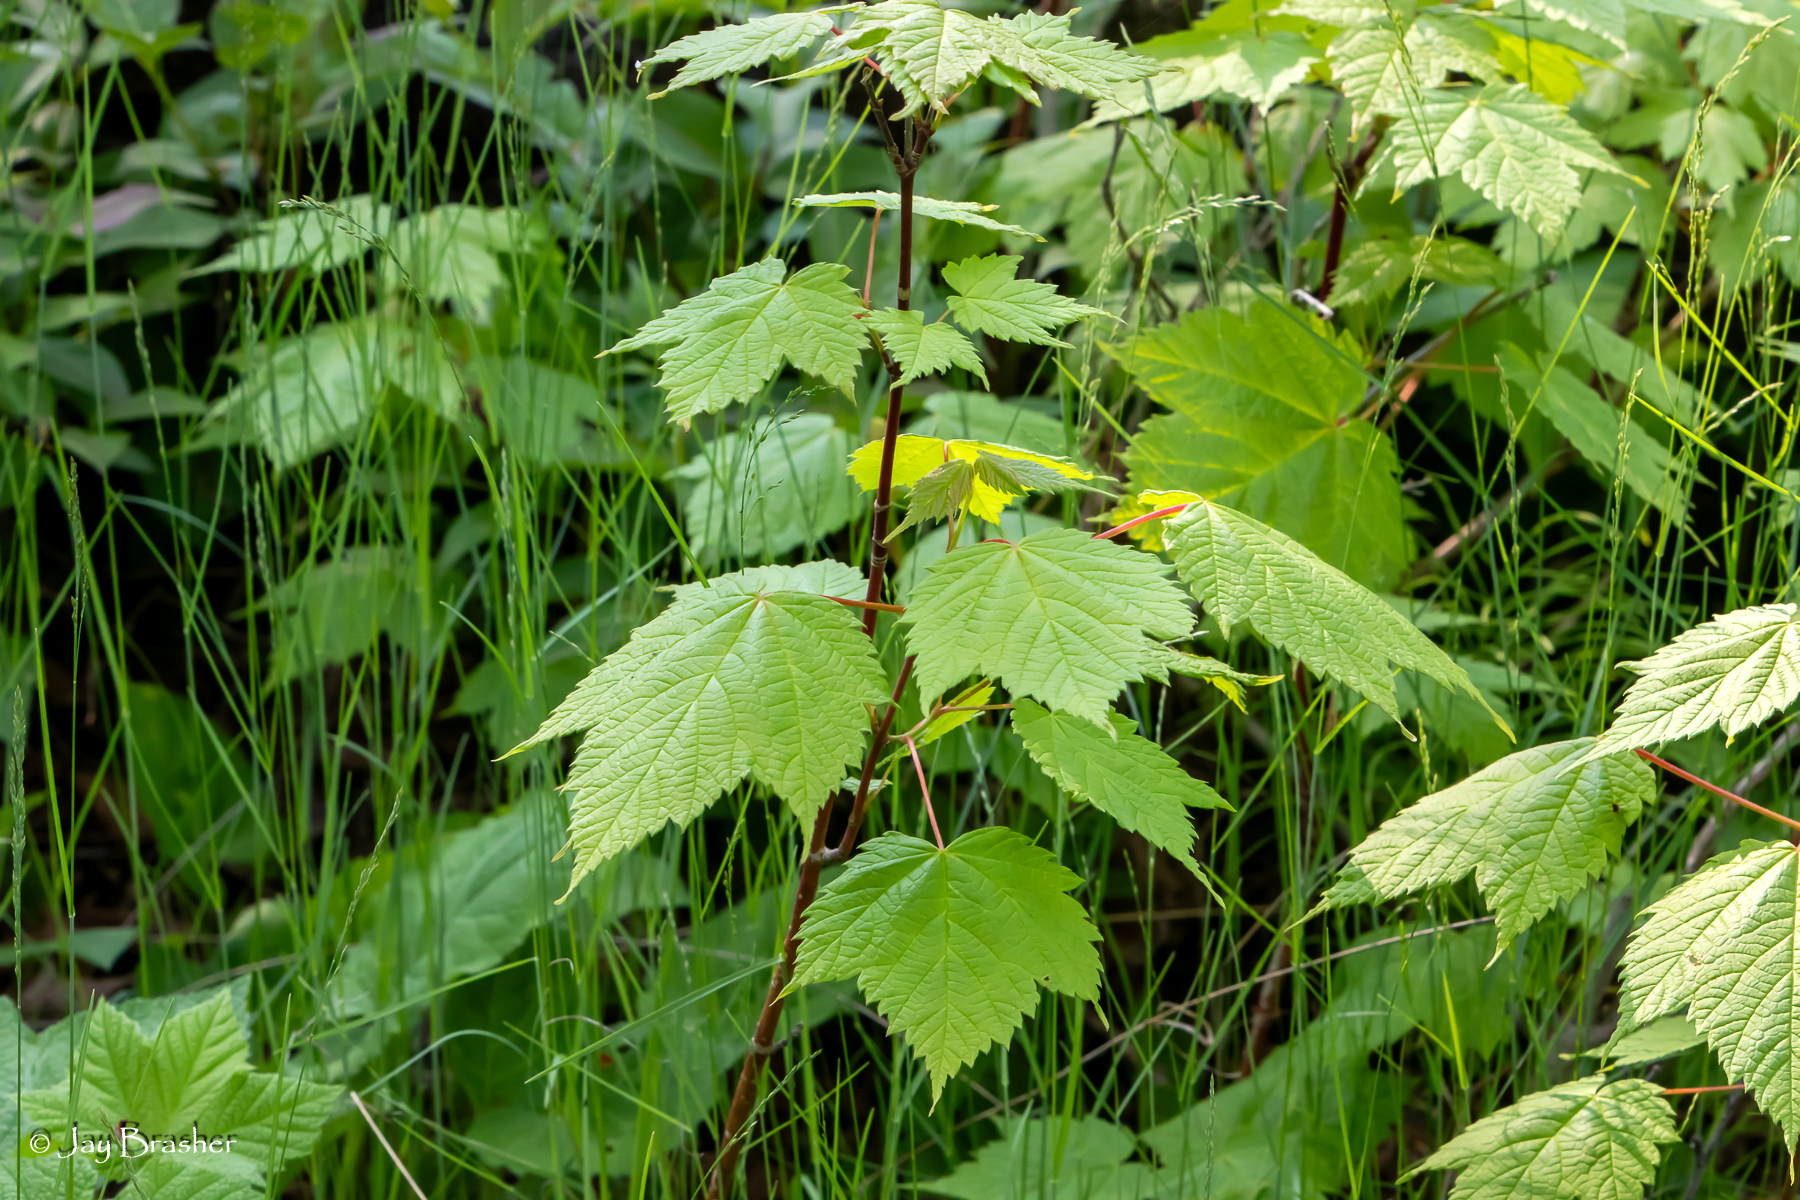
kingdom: Plantae
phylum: Tracheophyta
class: Magnoliopsida
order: Sapindales
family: Sapindaceae
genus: Acer
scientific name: Acer spicatum
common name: Mountain maple
